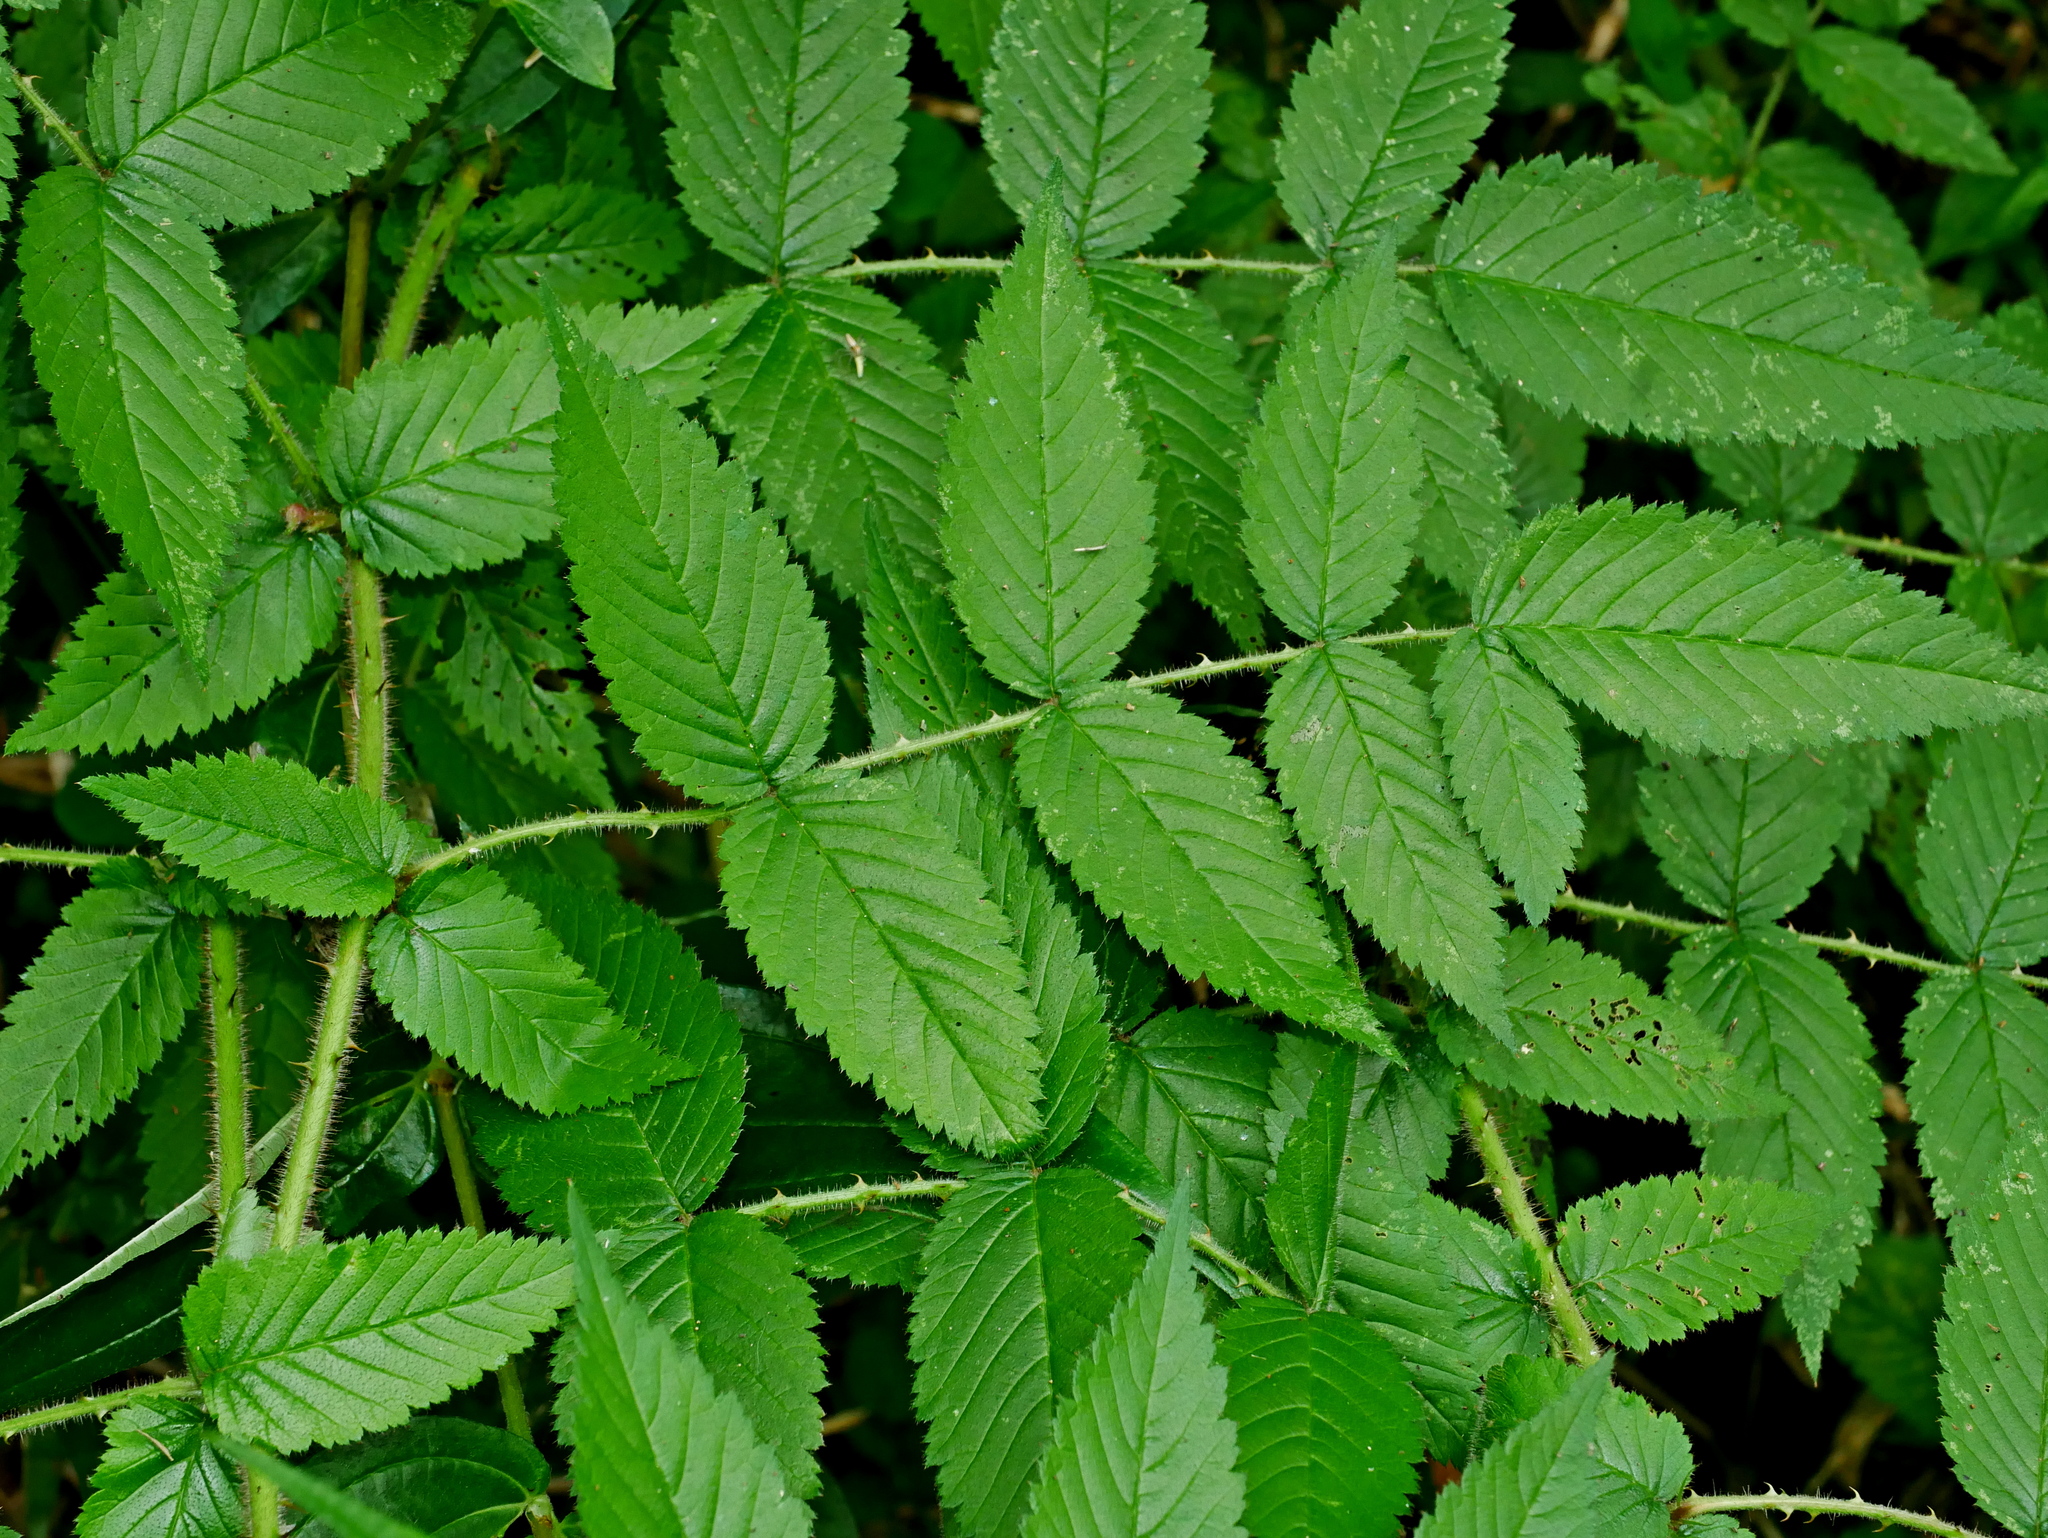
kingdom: Plantae
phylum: Tracheophyta
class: Magnoliopsida
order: Rosales
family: Rosaceae
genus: Rubus
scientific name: Rubus croceacanthus
